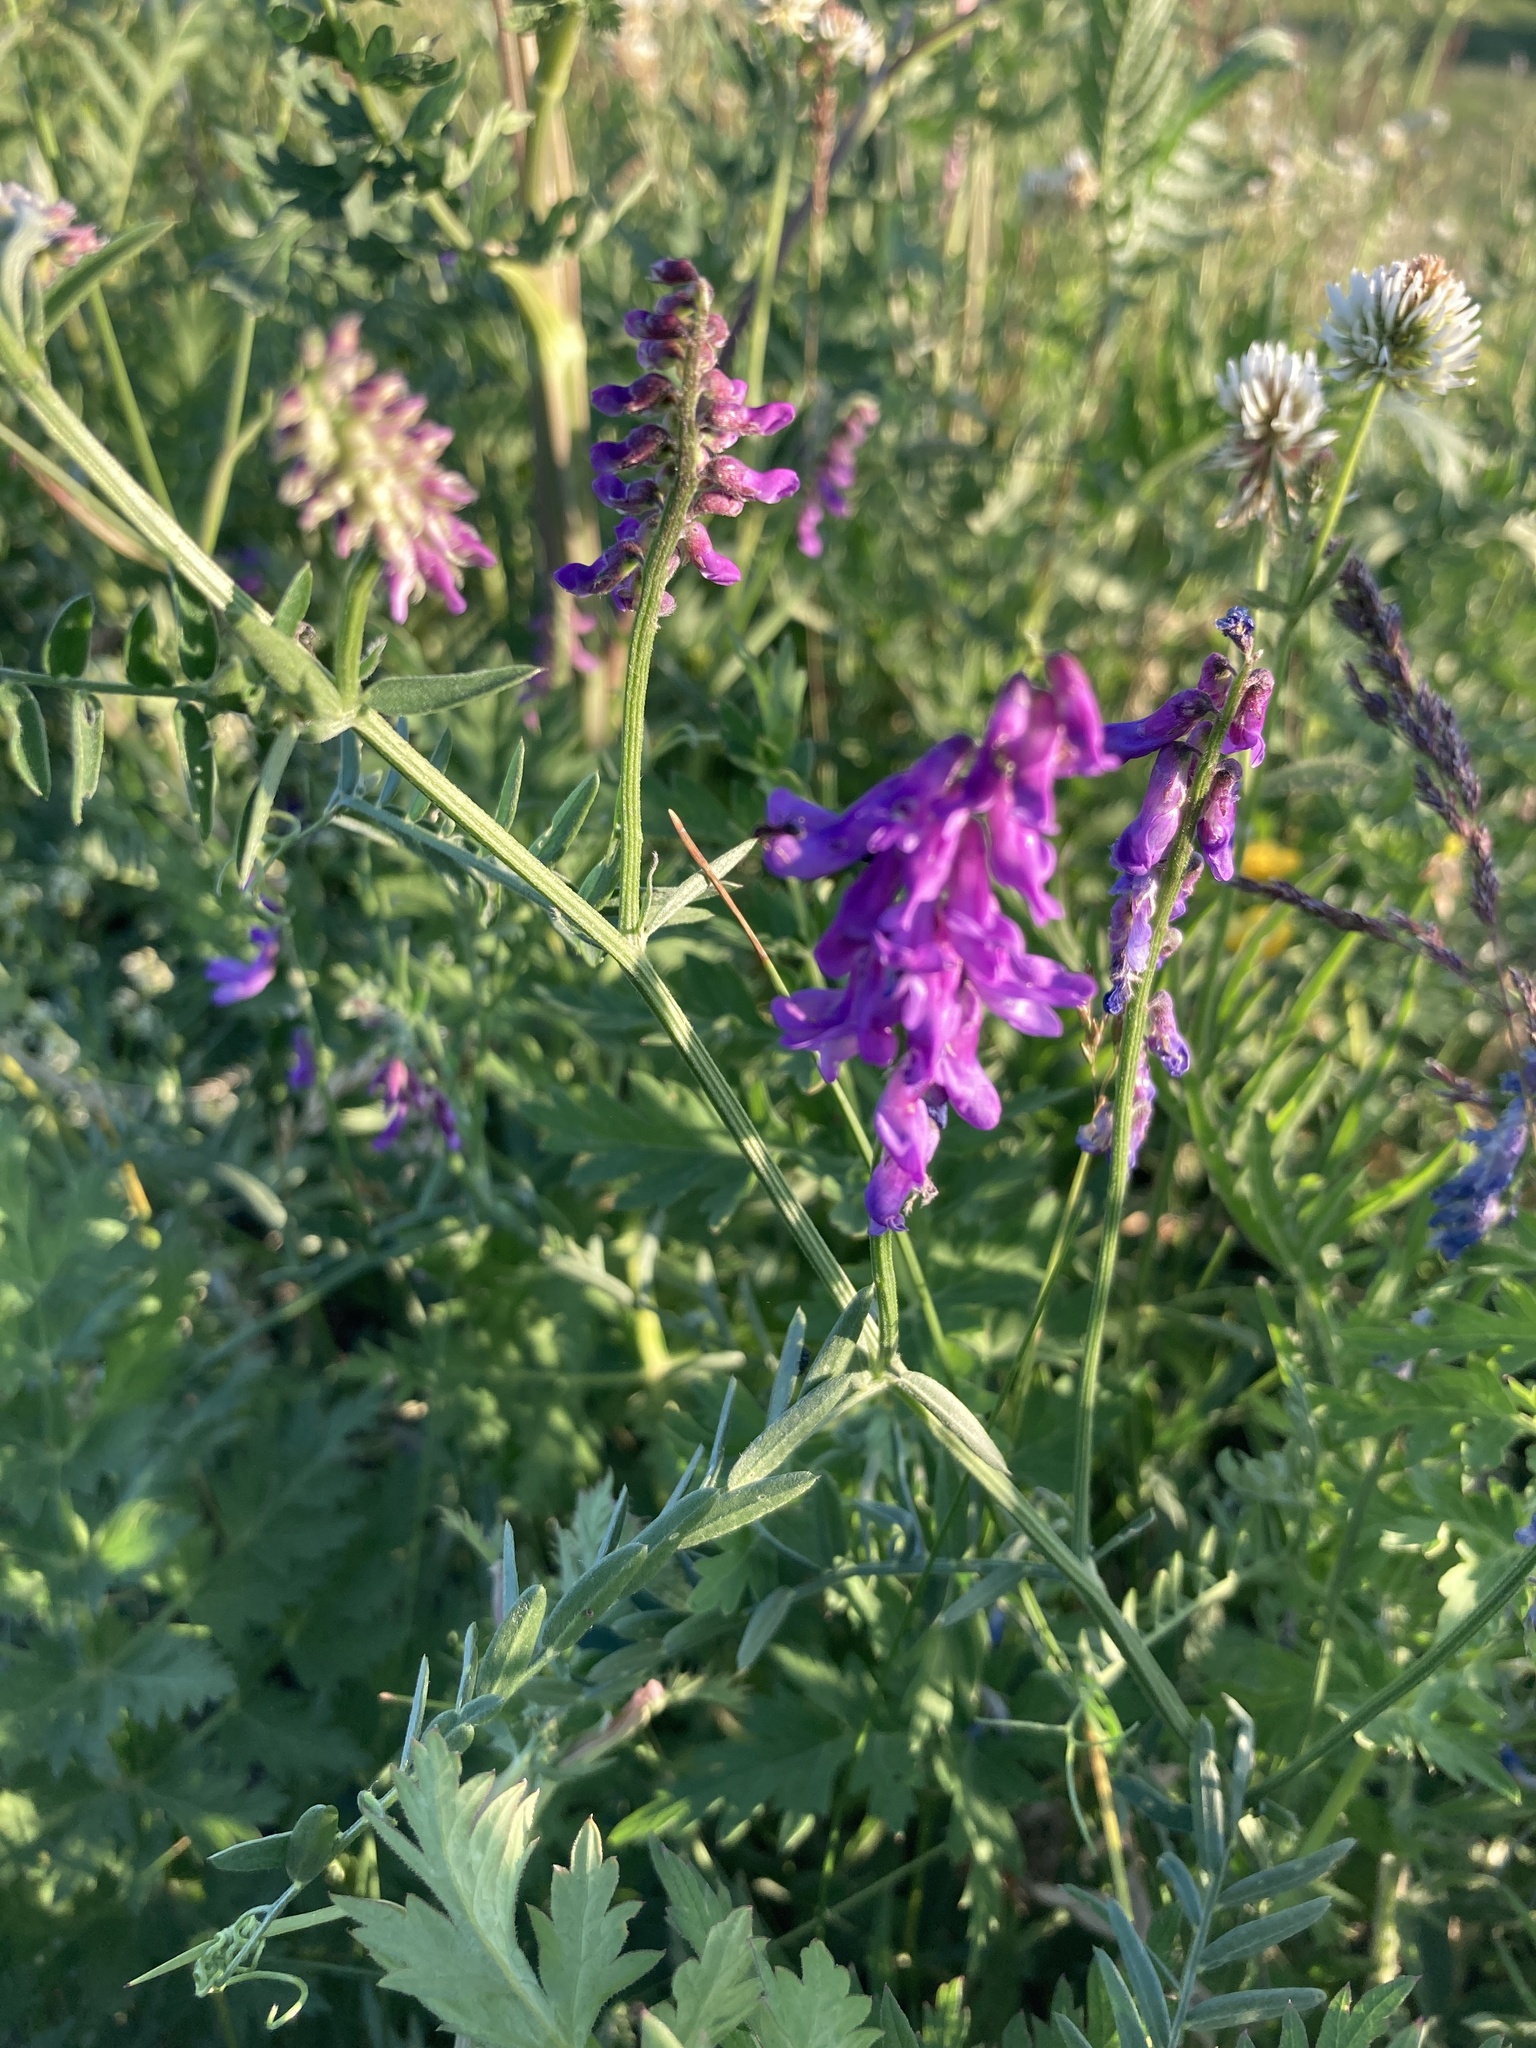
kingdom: Plantae
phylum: Tracheophyta
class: Magnoliopsida
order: Fabales
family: Fabaceae
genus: Vicia
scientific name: Vicia cracca
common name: Bird vetch
